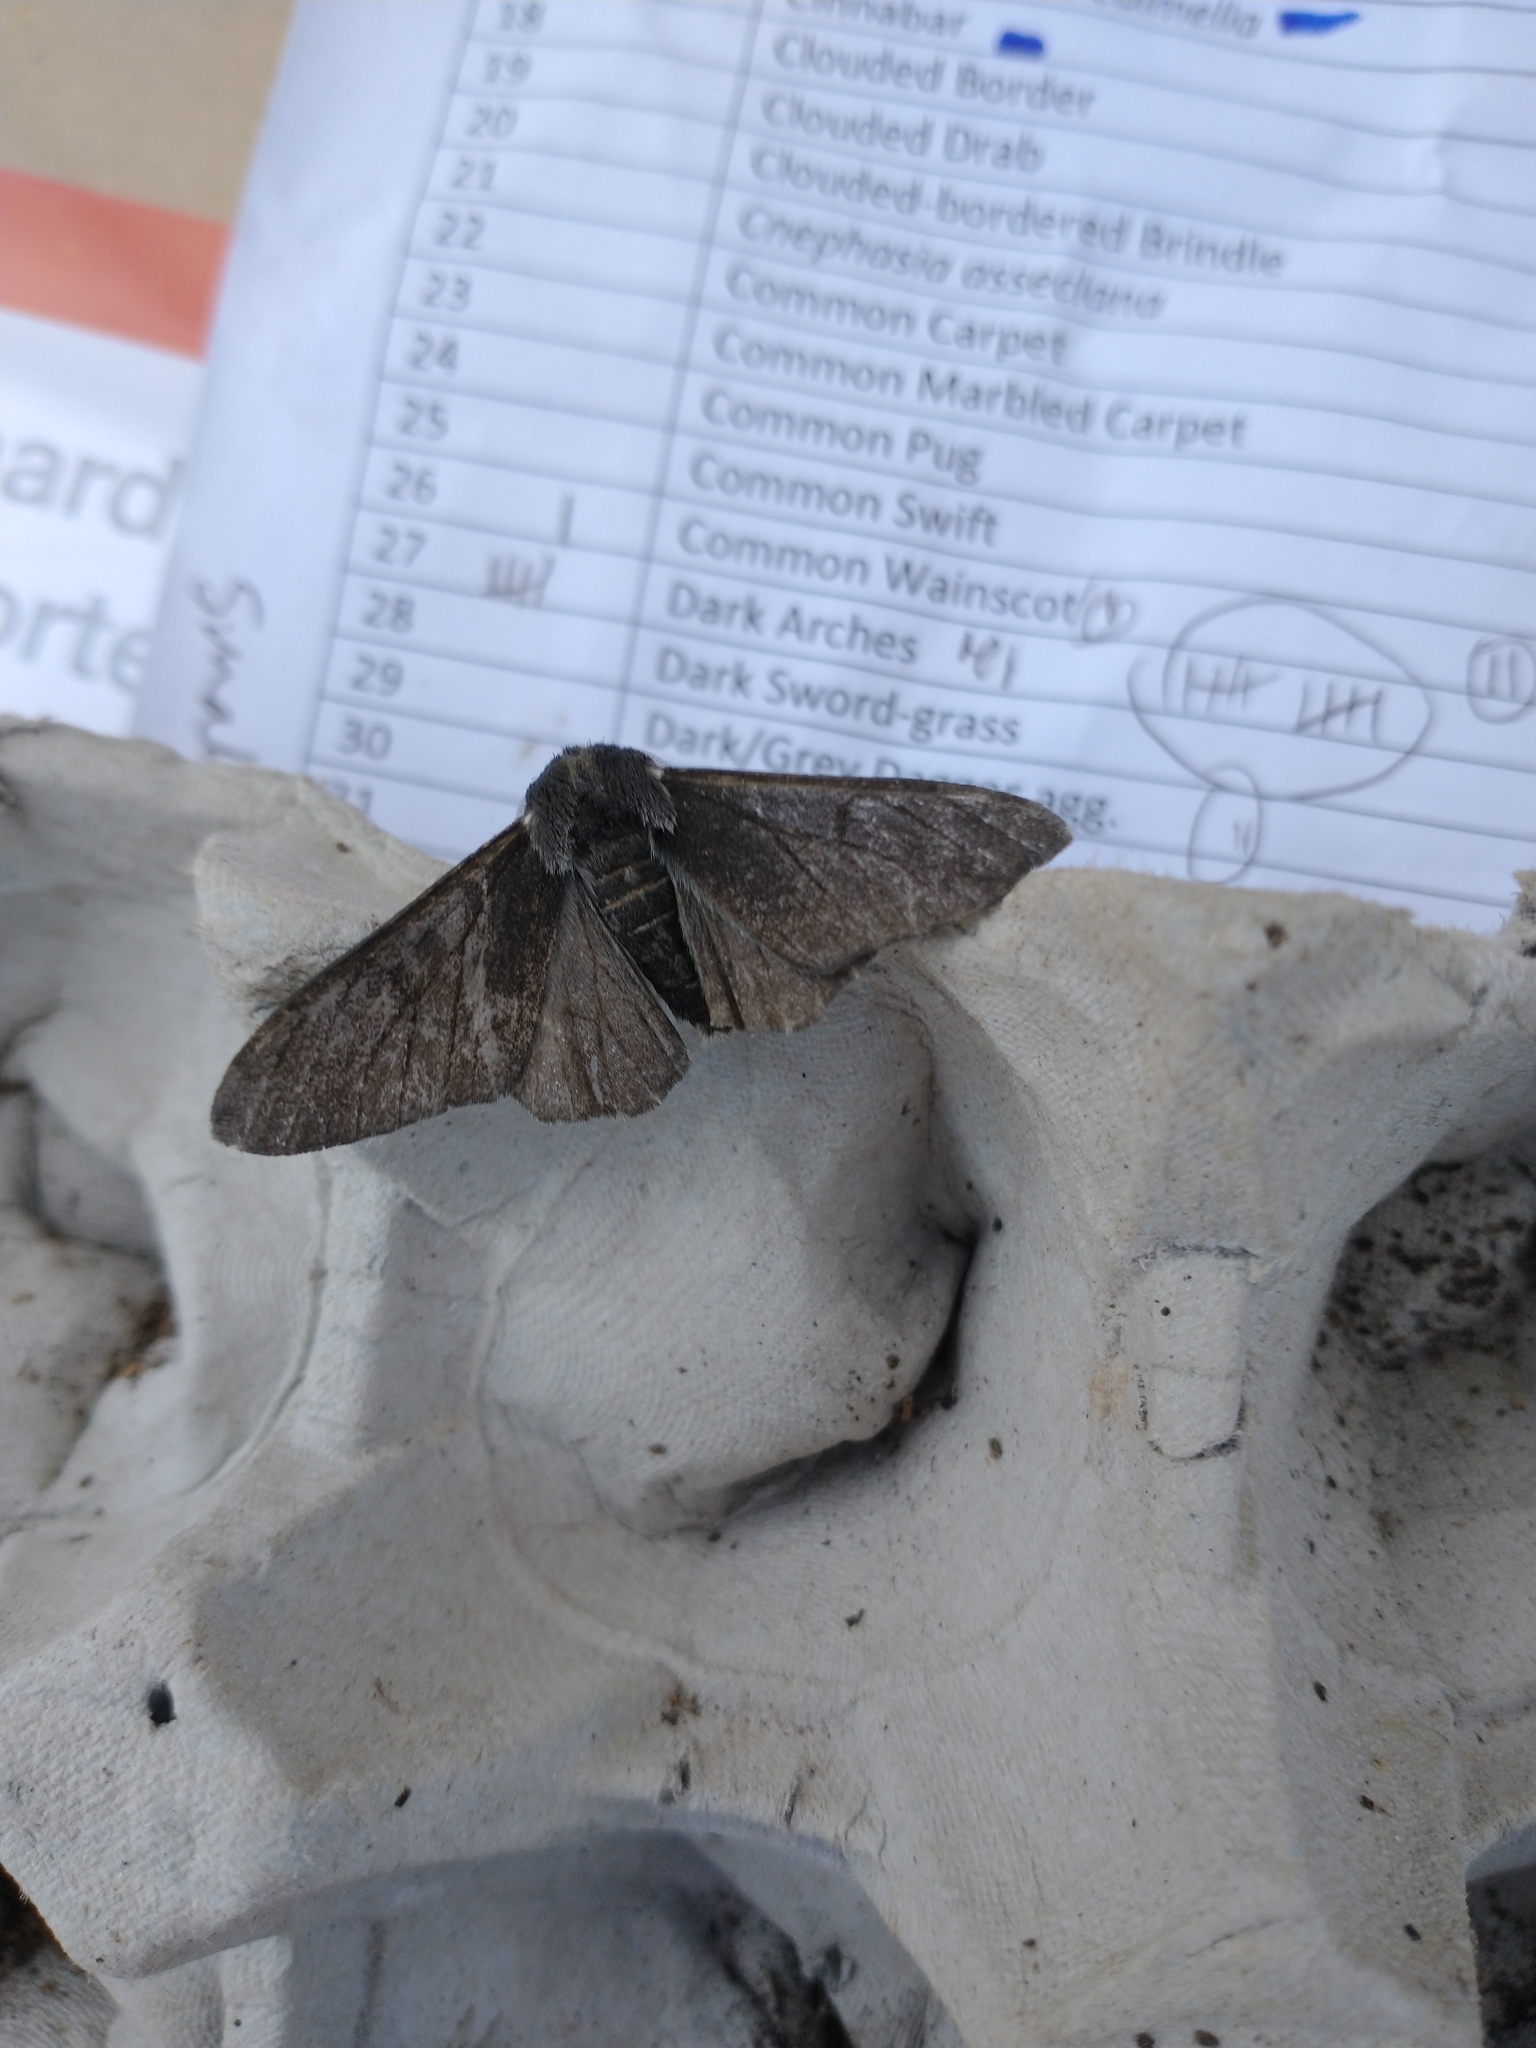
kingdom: Animalia
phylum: Arthropoda
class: Insecta
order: Lepidoptera
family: Geometridae
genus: Biston
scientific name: Biston betularia
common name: Peppered moth
